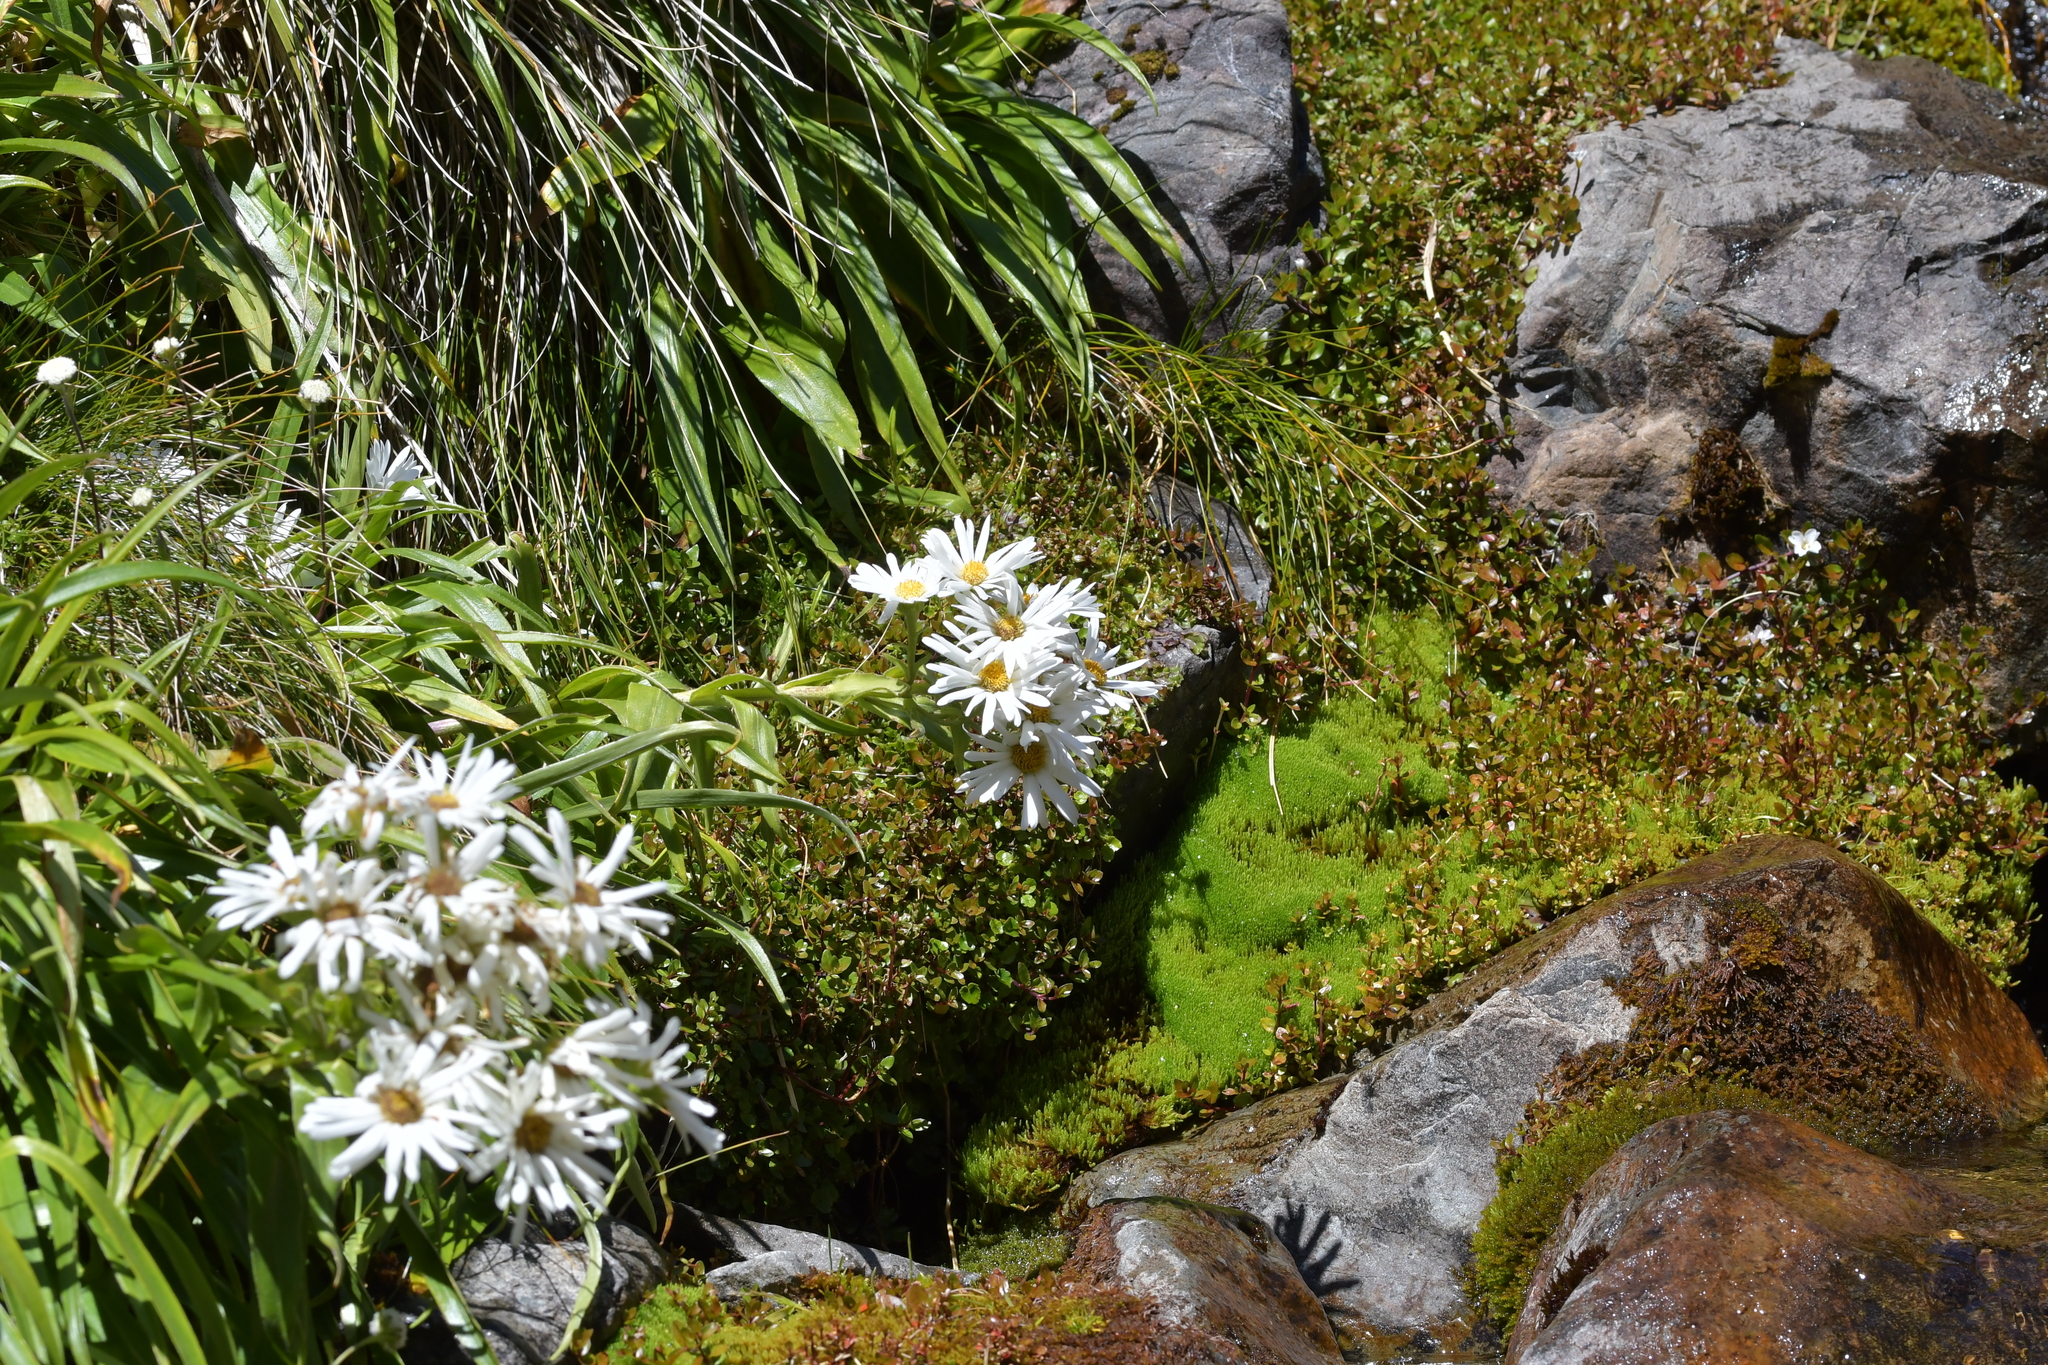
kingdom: Plantae
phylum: Tracheophyta
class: Magnoliopsida
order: Asterales
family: Asteraceae
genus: Dolichoglottis
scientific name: Dolichoglottis scorzoneroides
